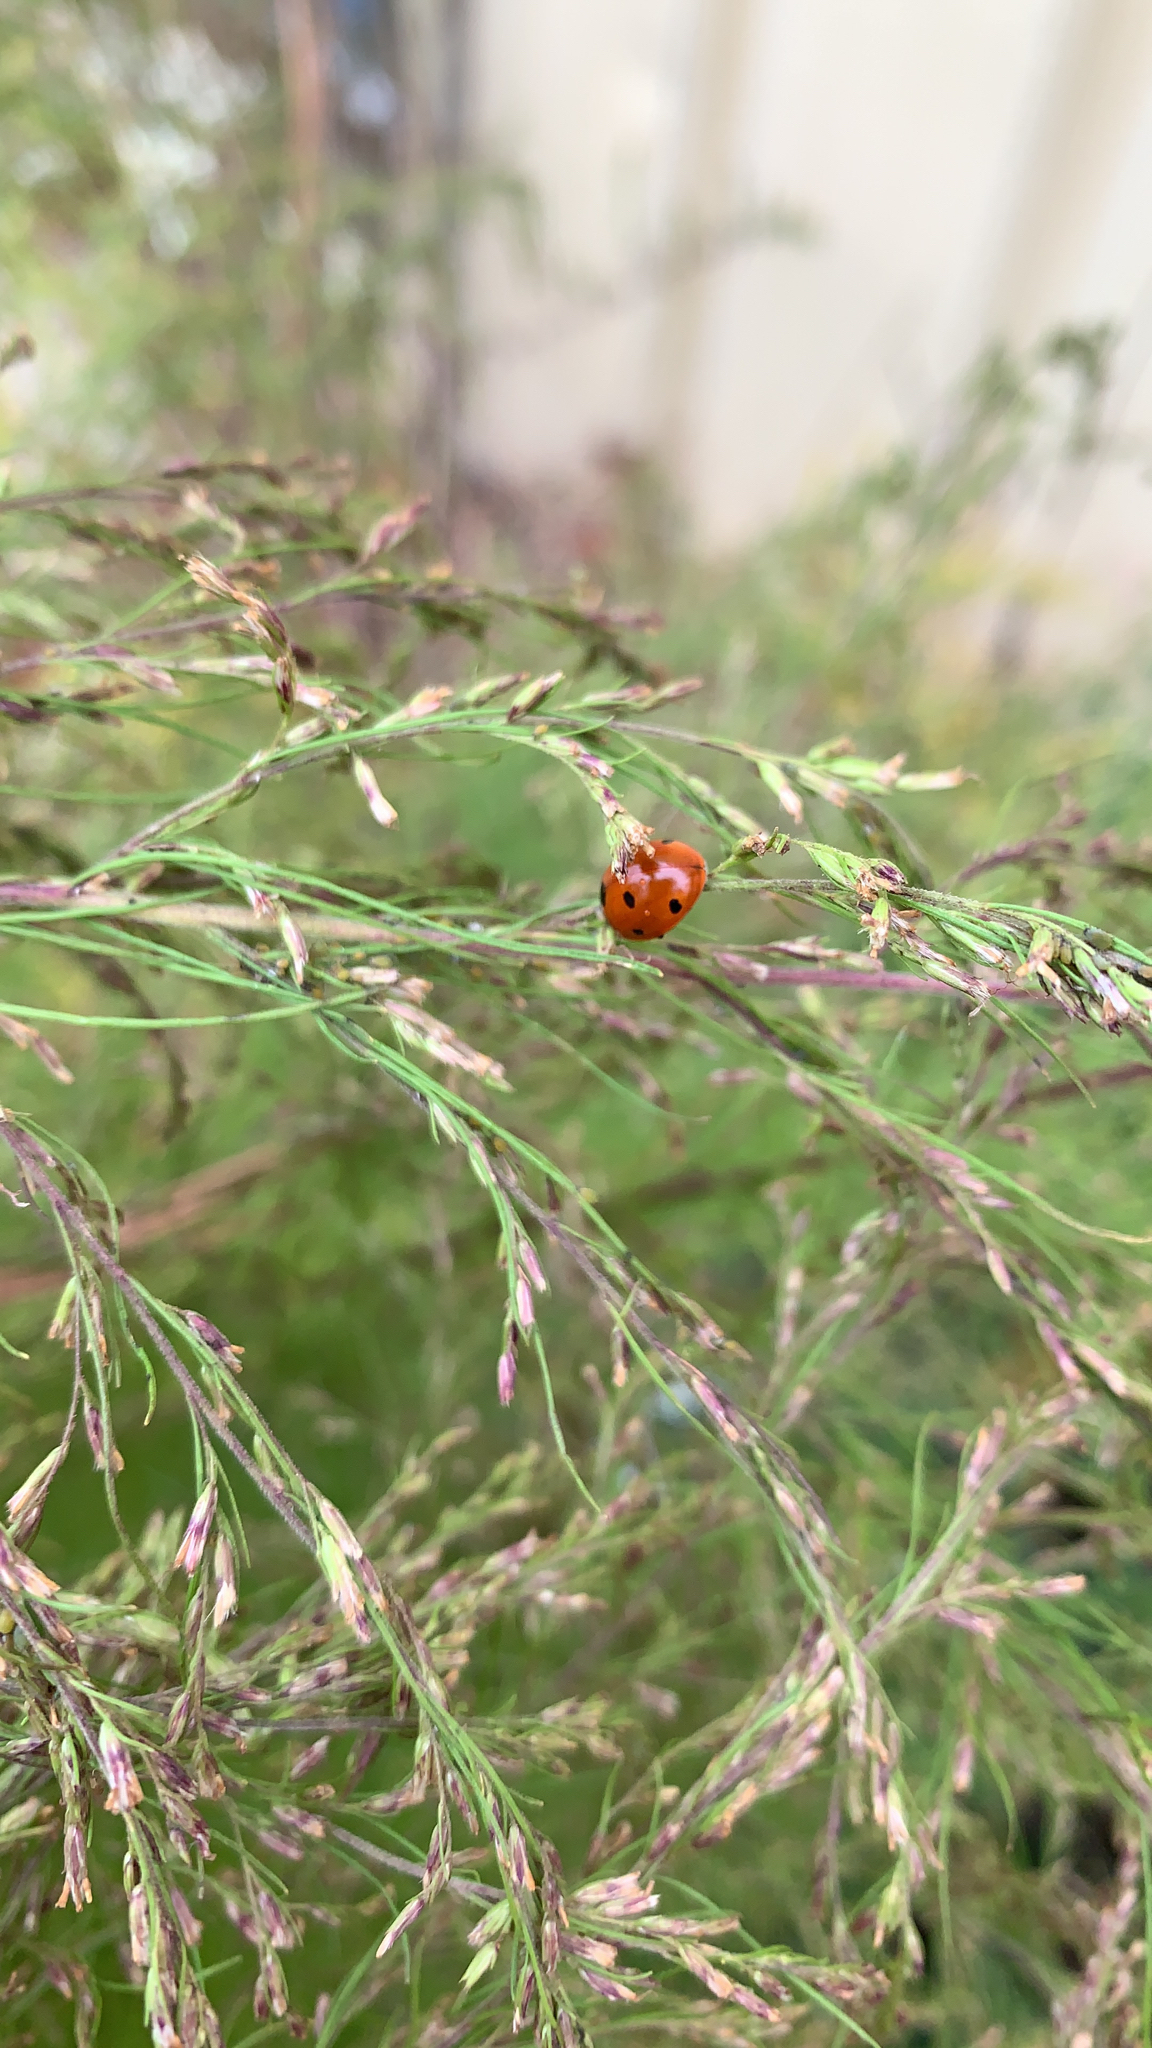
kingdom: Animalia
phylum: Arthropoda
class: Insecta
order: Coleoptera
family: Coccinellidae
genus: Coccinella
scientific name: Coccinella septempunctata
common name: Sevenspotted lady beetle
